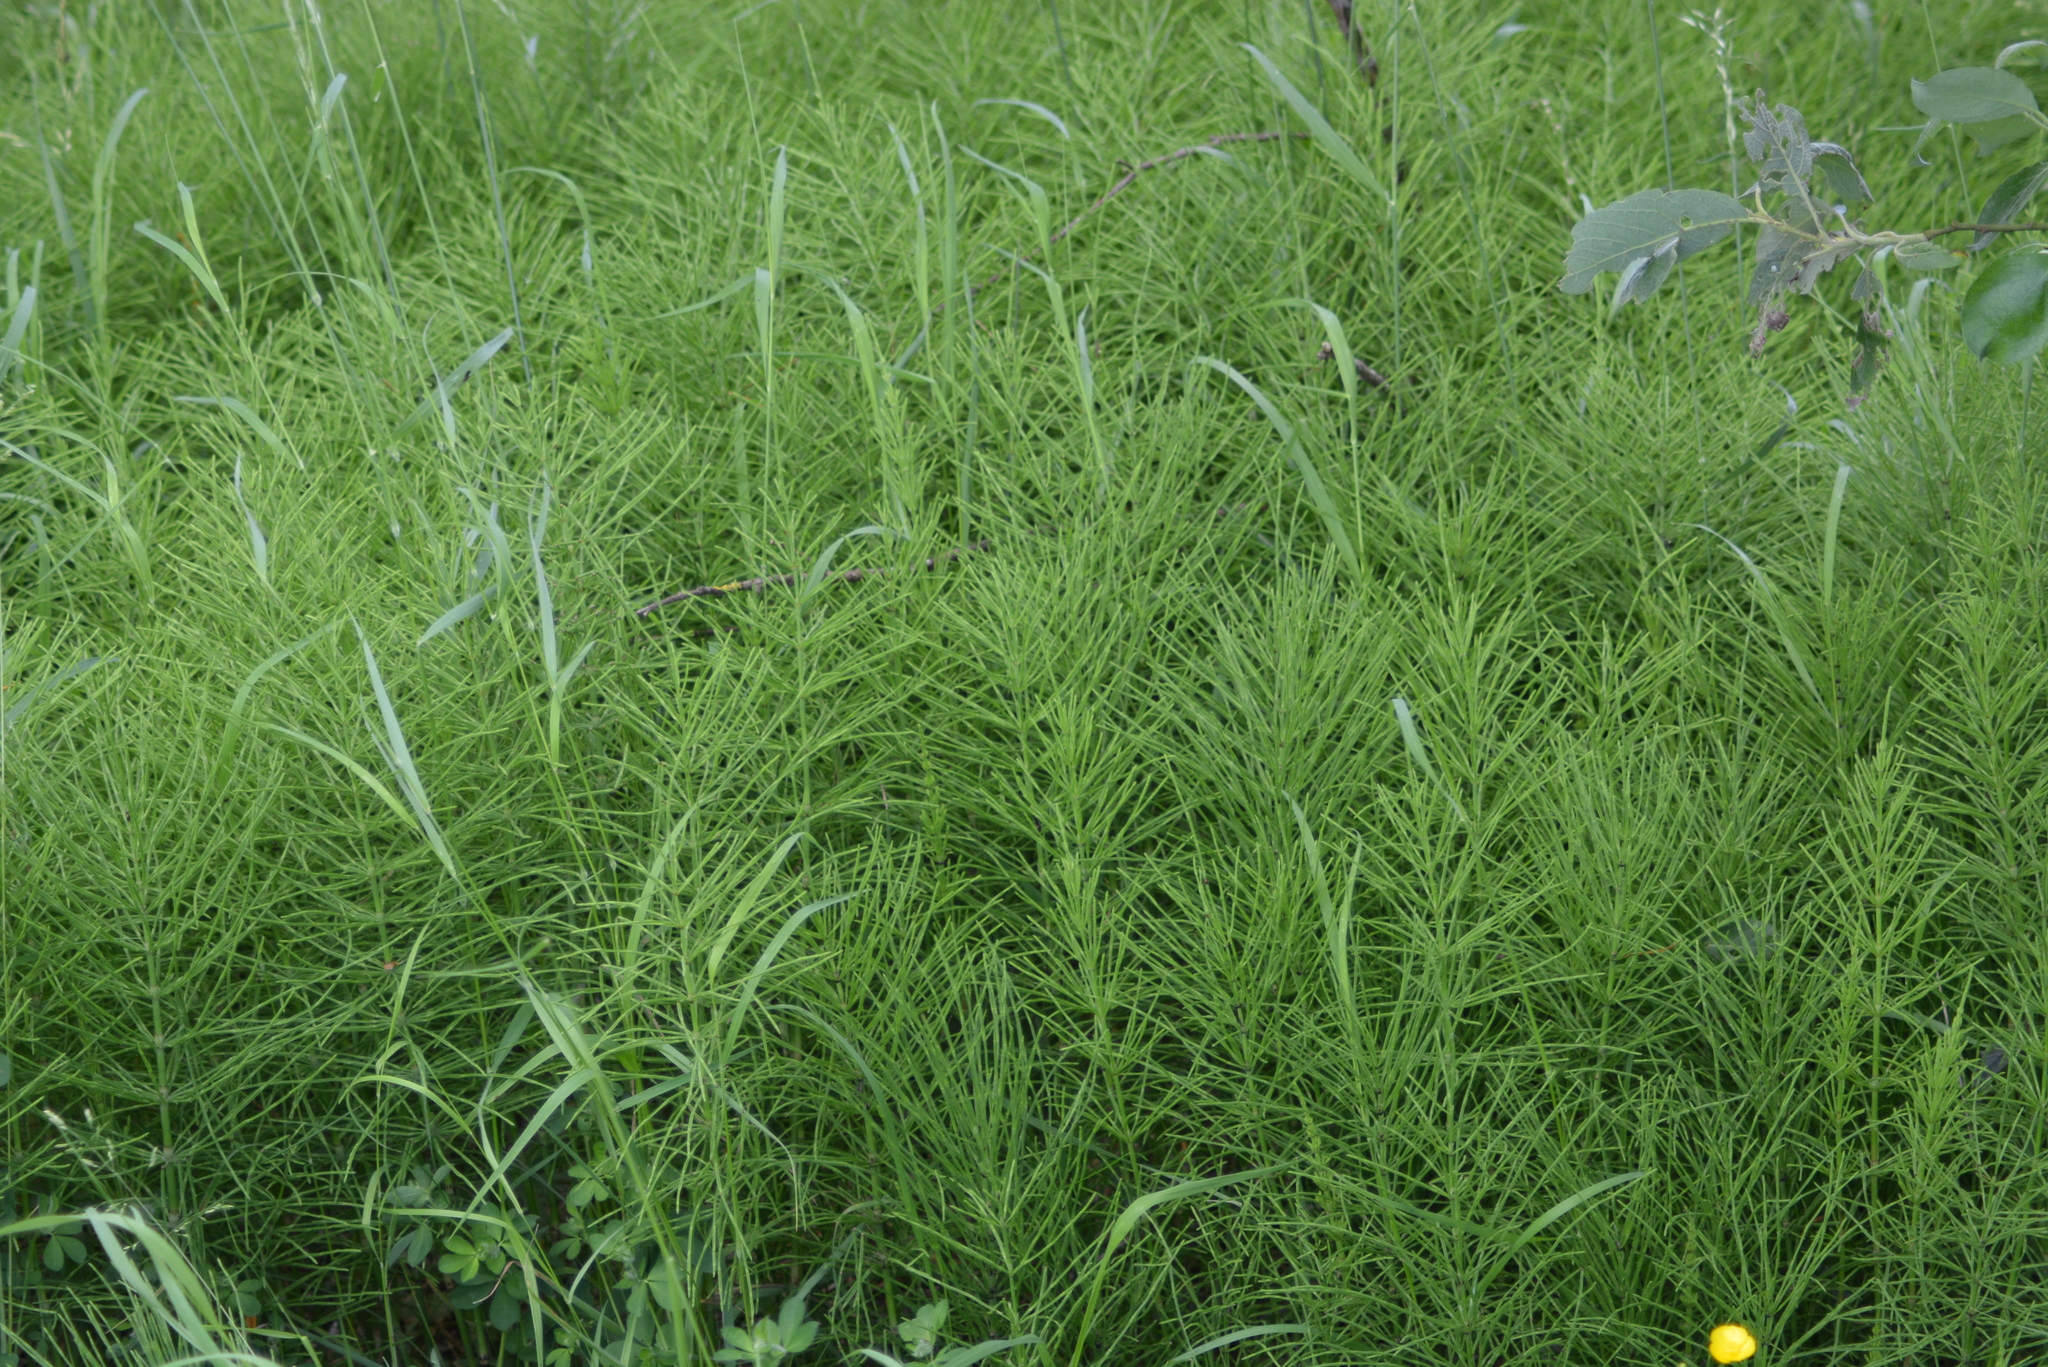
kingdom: Plantae
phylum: Tracheophyta
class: Polypodiopsida
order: Equisetales
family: Equisetaceae
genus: Equisetum
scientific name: Equisetum arvense
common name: Field horsetail
